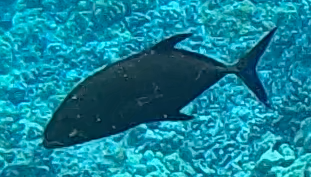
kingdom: Animalia
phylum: Chordata
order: Perciformes
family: Carangidae
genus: Caranx
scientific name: Caranx melampygus
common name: Bluefin trevally
